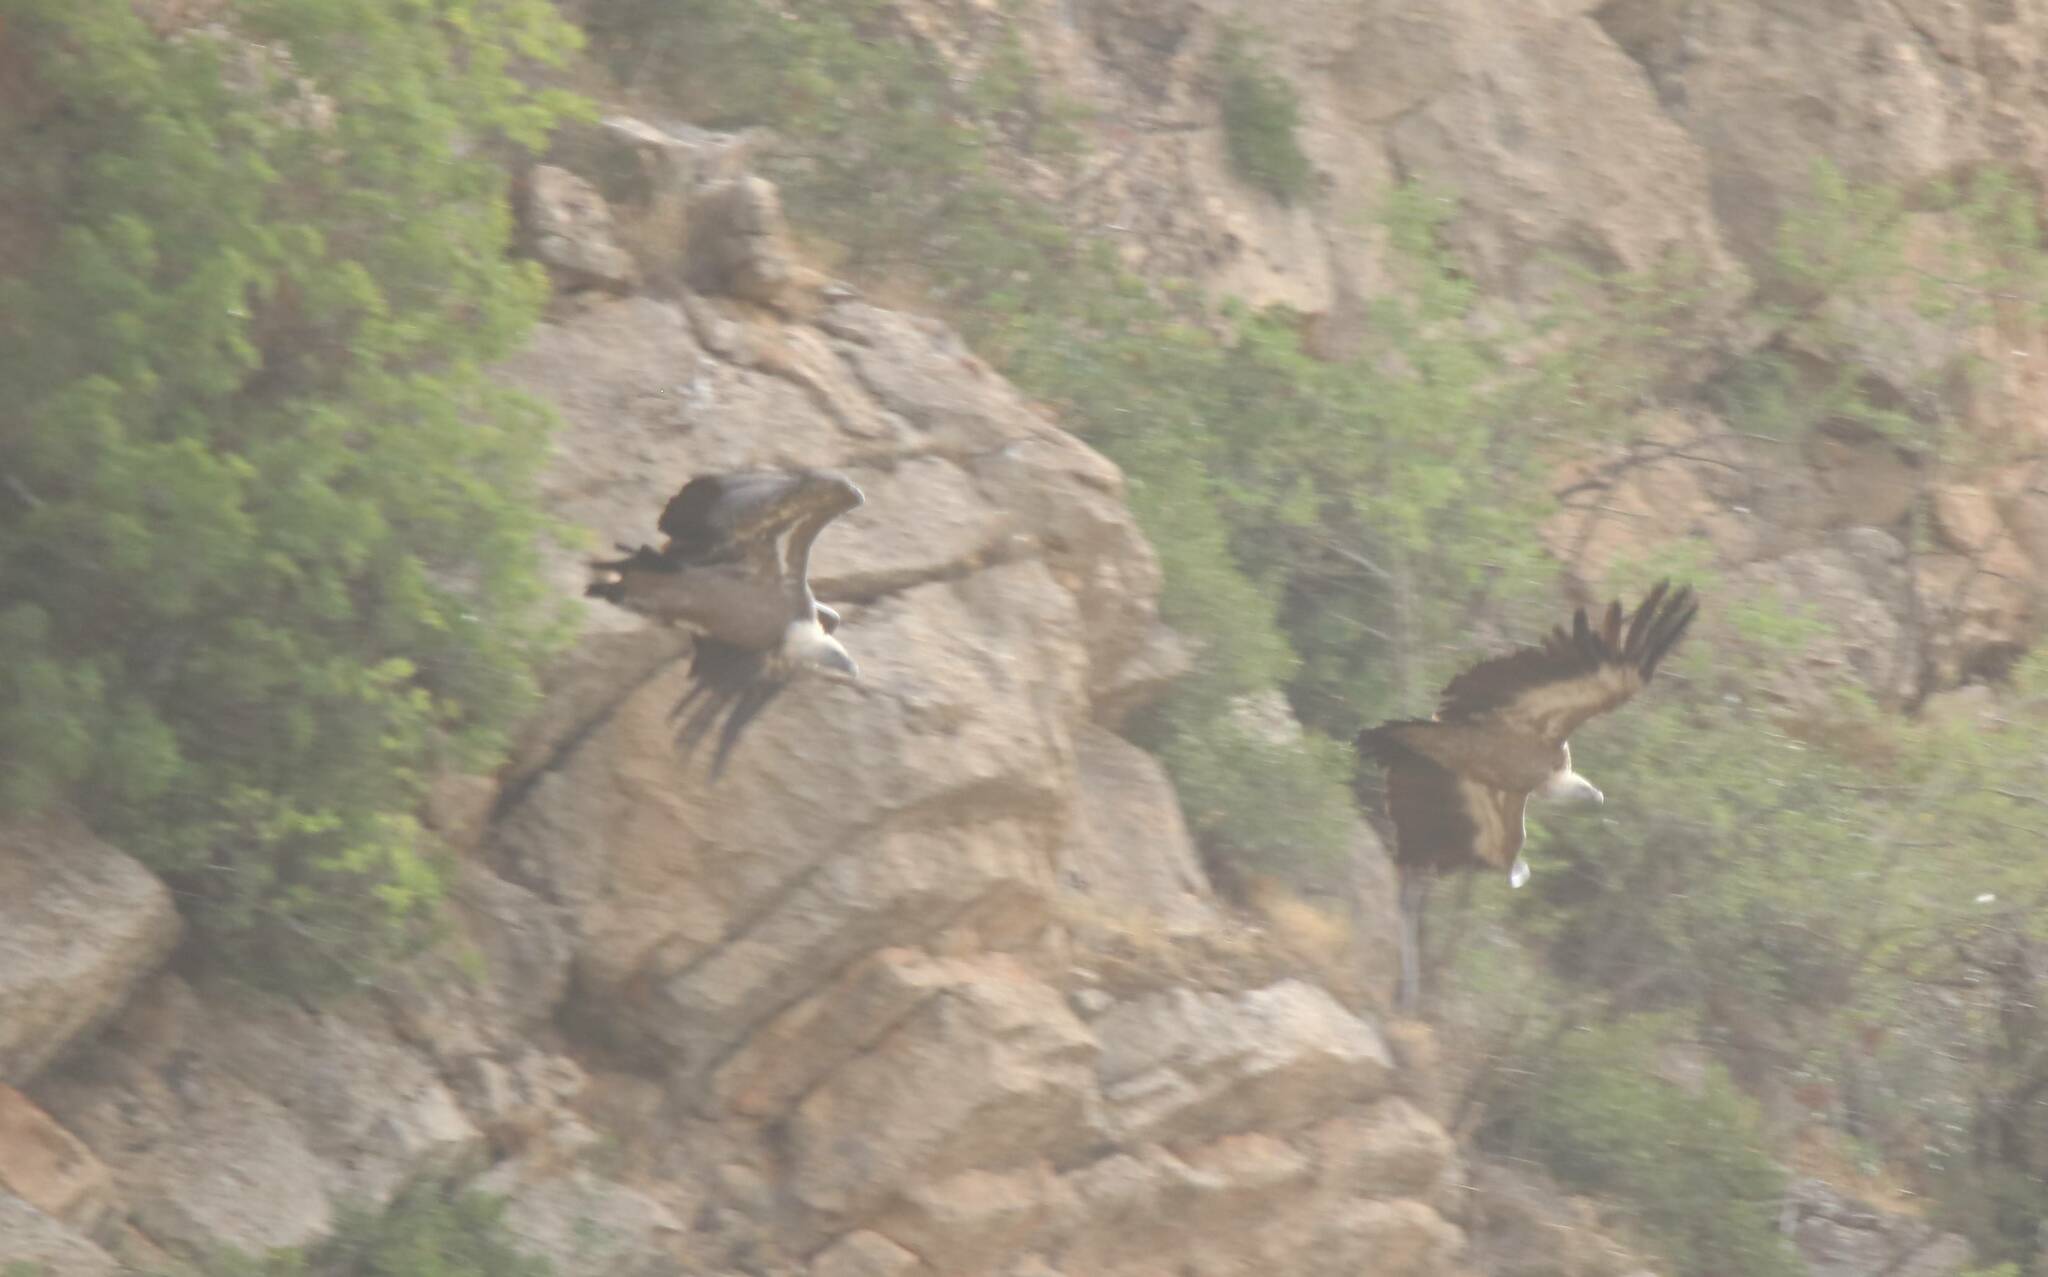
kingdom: Animalia
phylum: Chordata
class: Aves
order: Accipitriformes
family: Accipitridae
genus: Gyps
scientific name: Gyps fulvus
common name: Griffon vulture
